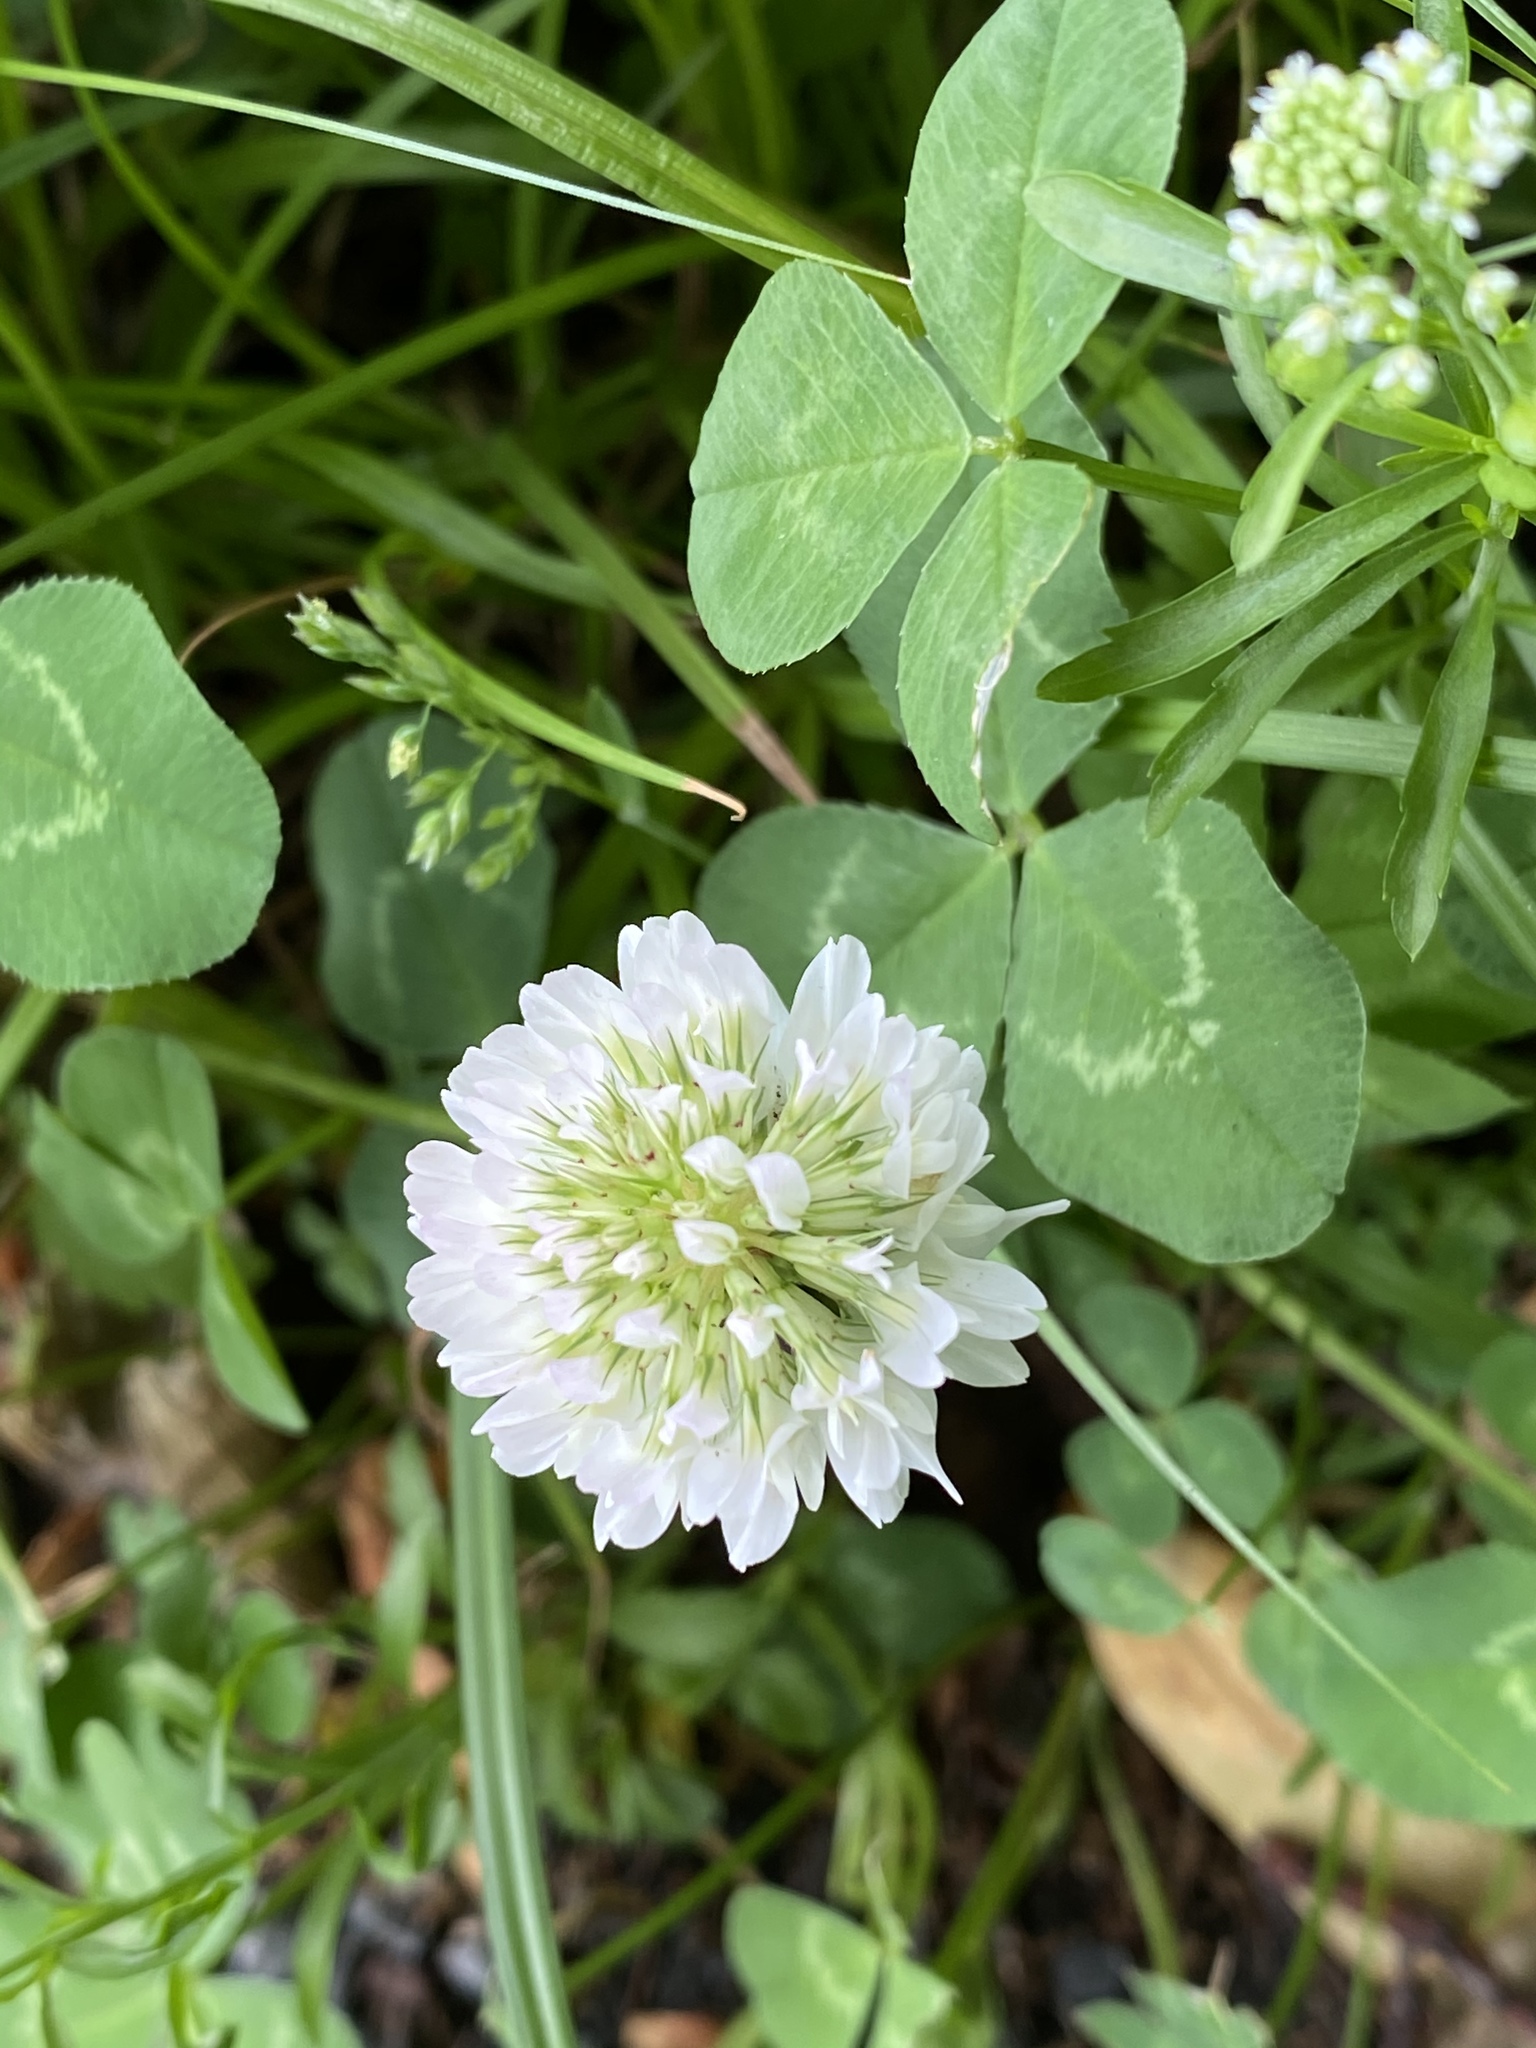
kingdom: Plantae
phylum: Tracheophyta
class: Magnoliopsida
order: Fabales
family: Fabaceae
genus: Trifolium
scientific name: Trifolium repens
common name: White clover
